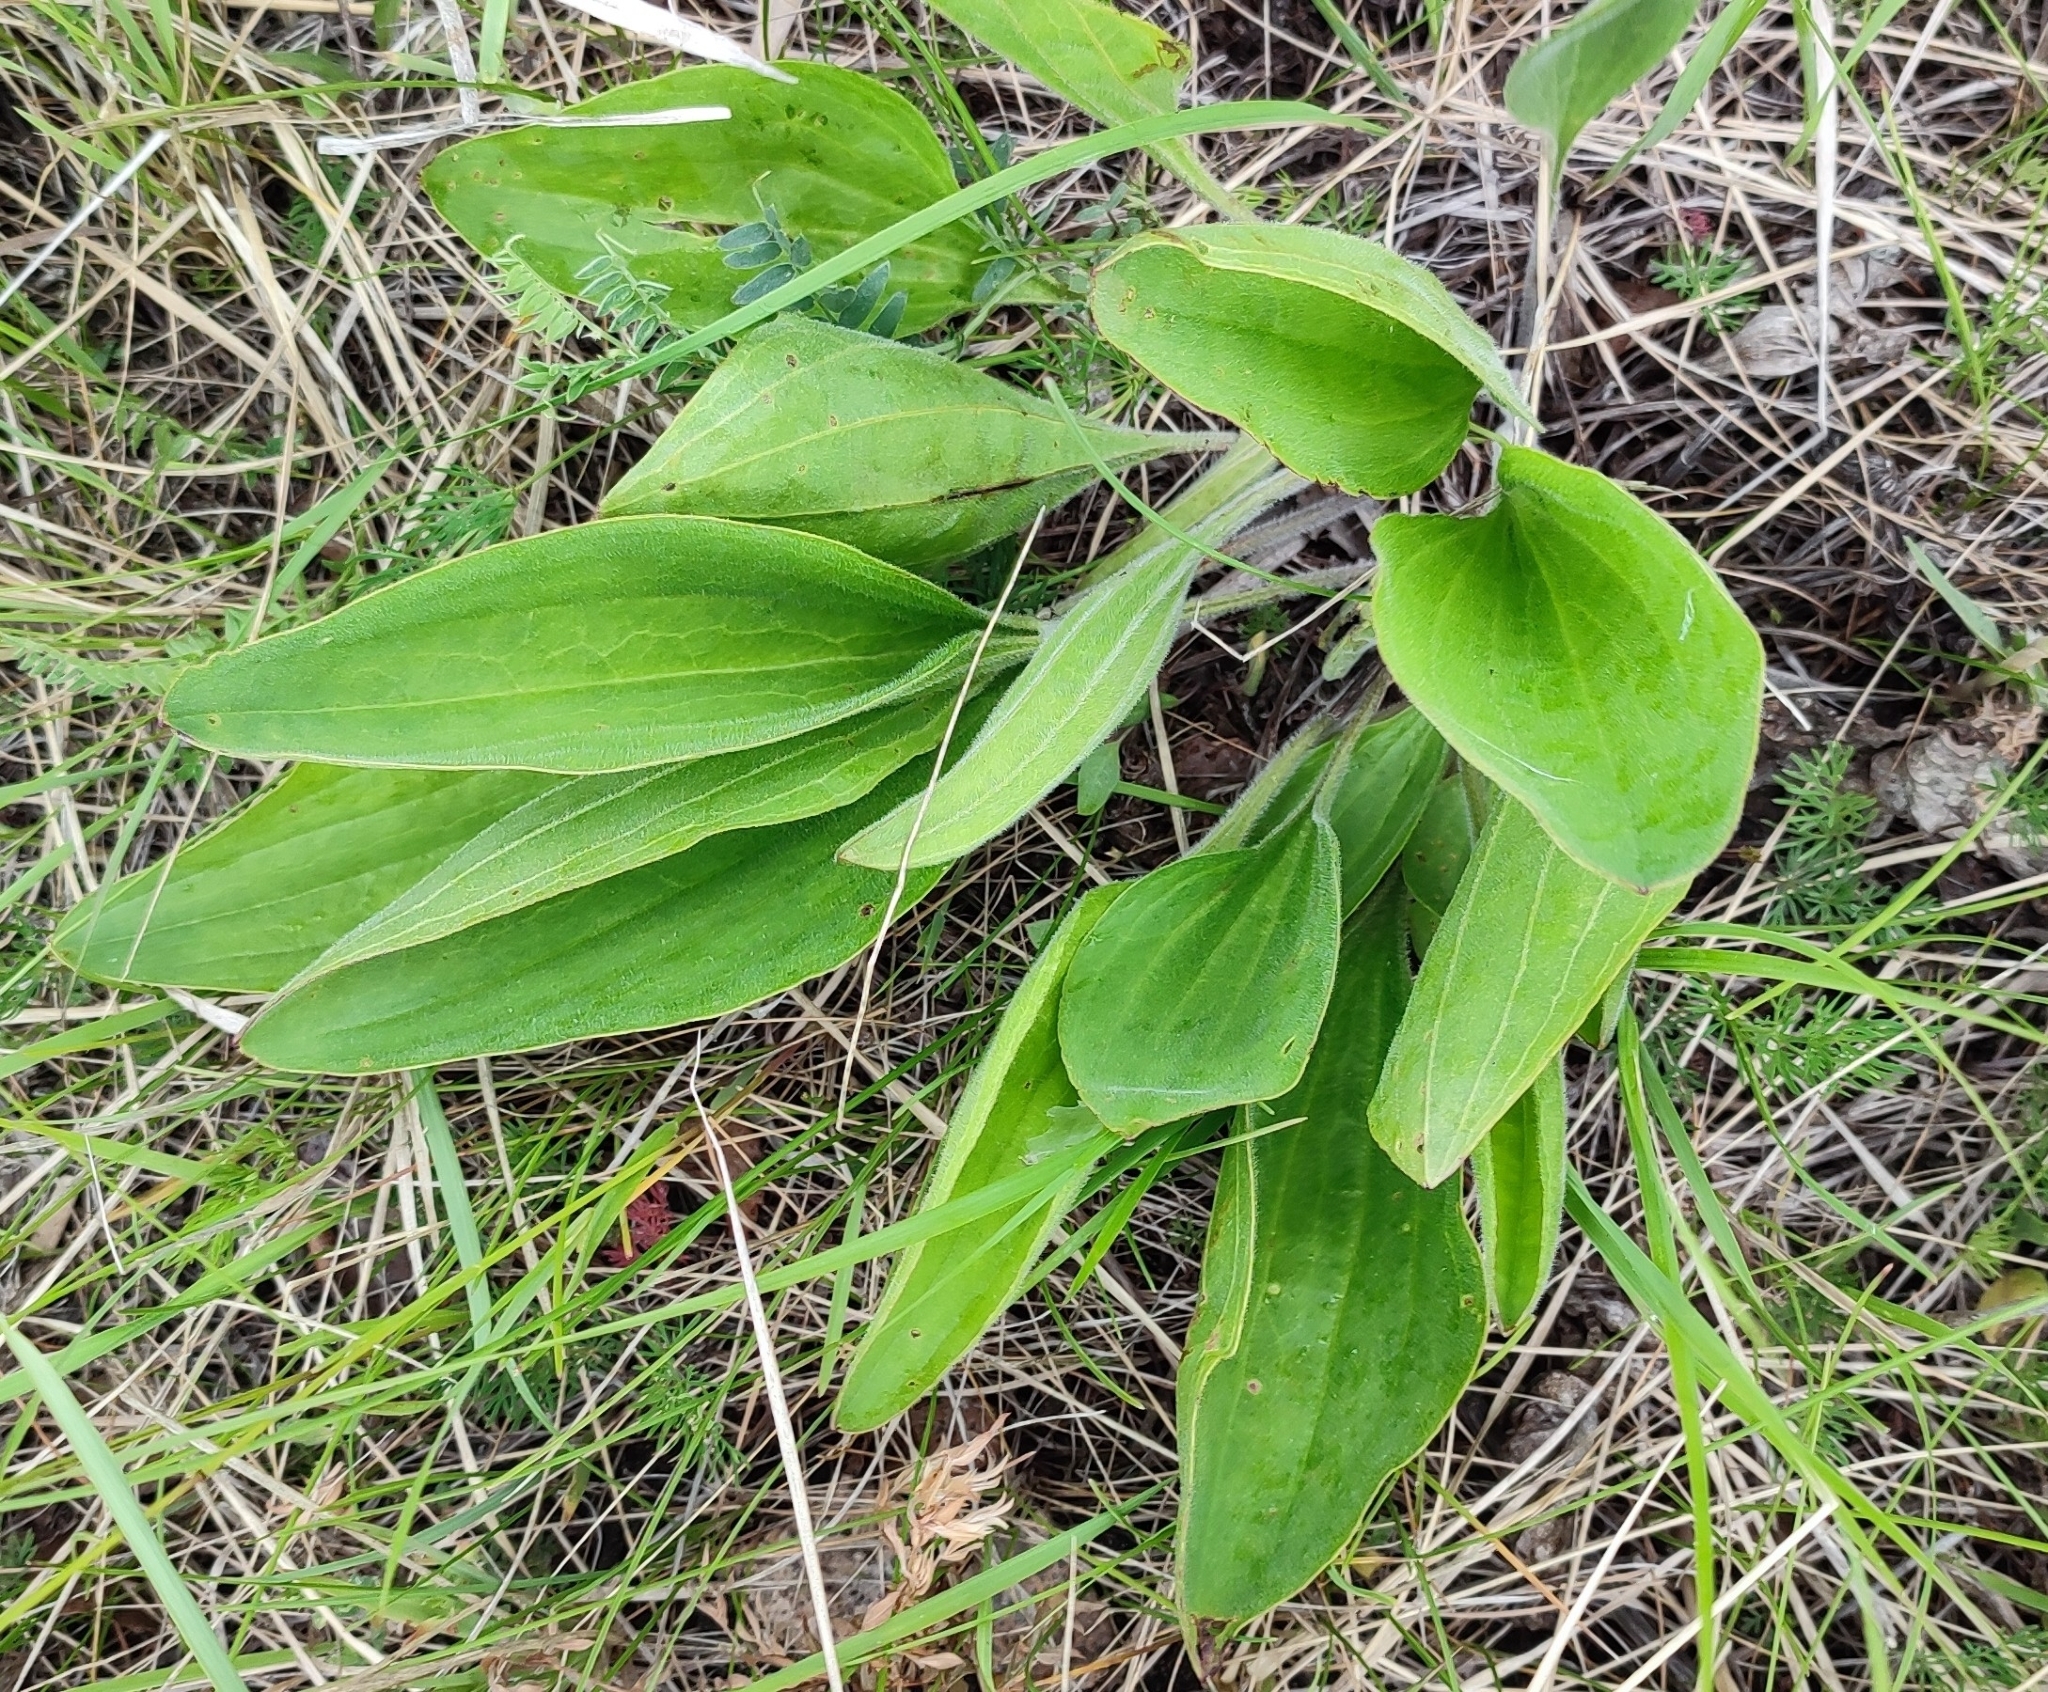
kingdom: Plantae
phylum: Tracheophyta
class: Magnoliopsida
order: Lamiales
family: Plantaginaceae
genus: Plantago
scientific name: Plantago cornuti
